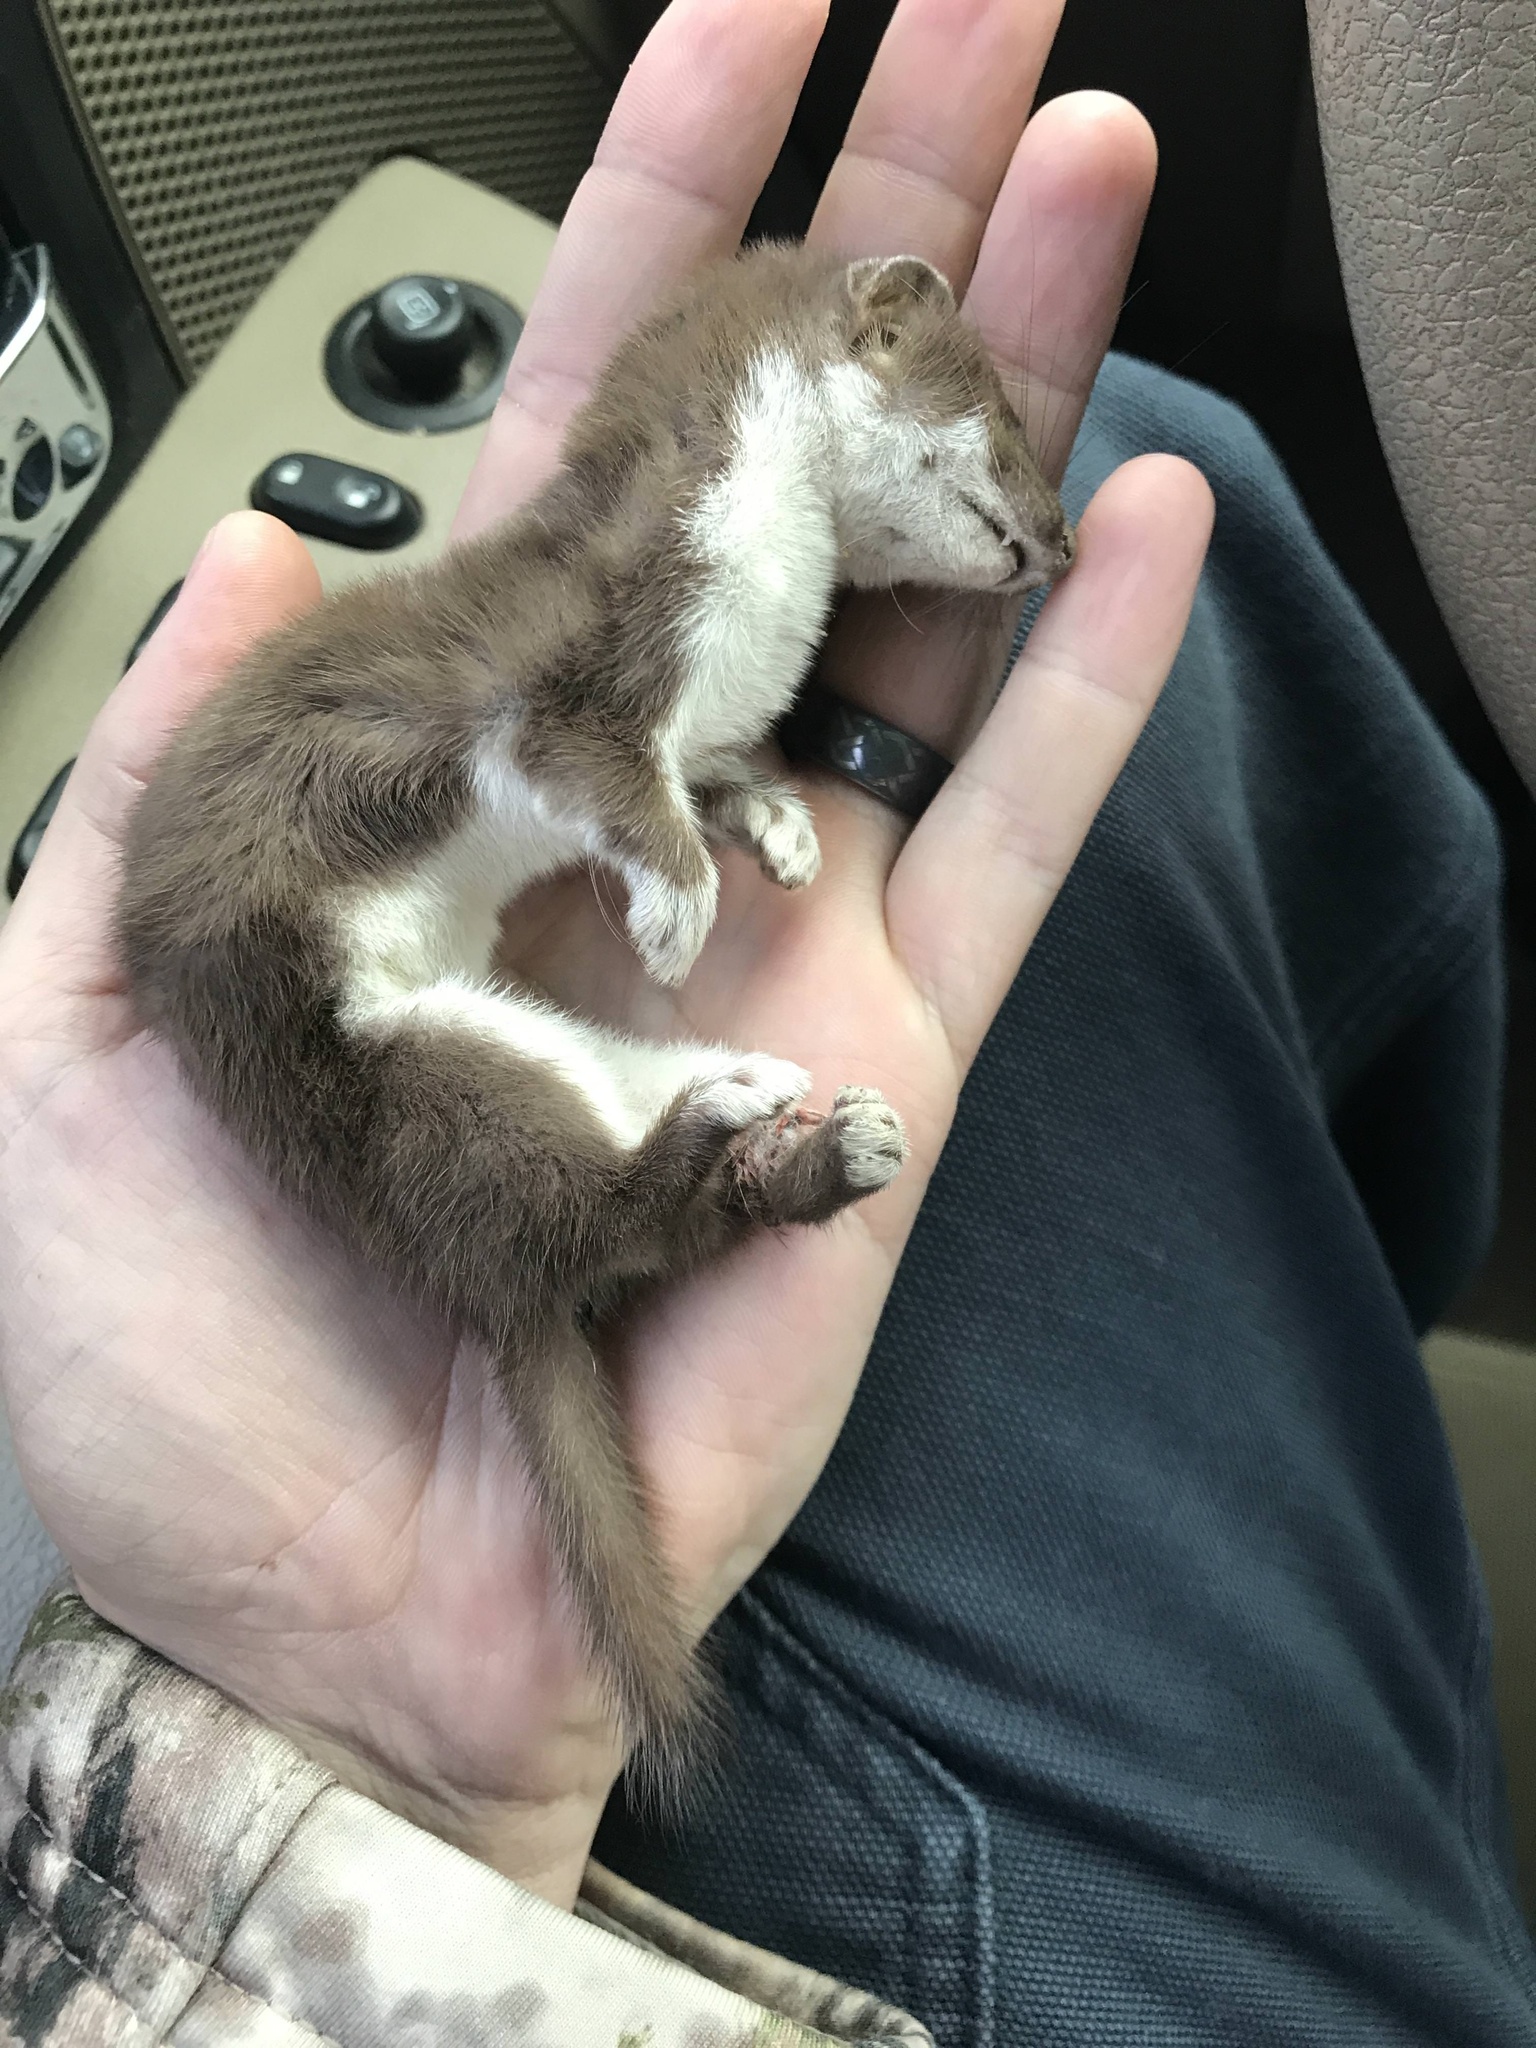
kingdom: Animalia
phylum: Chordata
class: Mammalia
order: Carnivora
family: Mustelidae
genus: Mustela
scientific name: Mustela nivalis
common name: Least weasel
